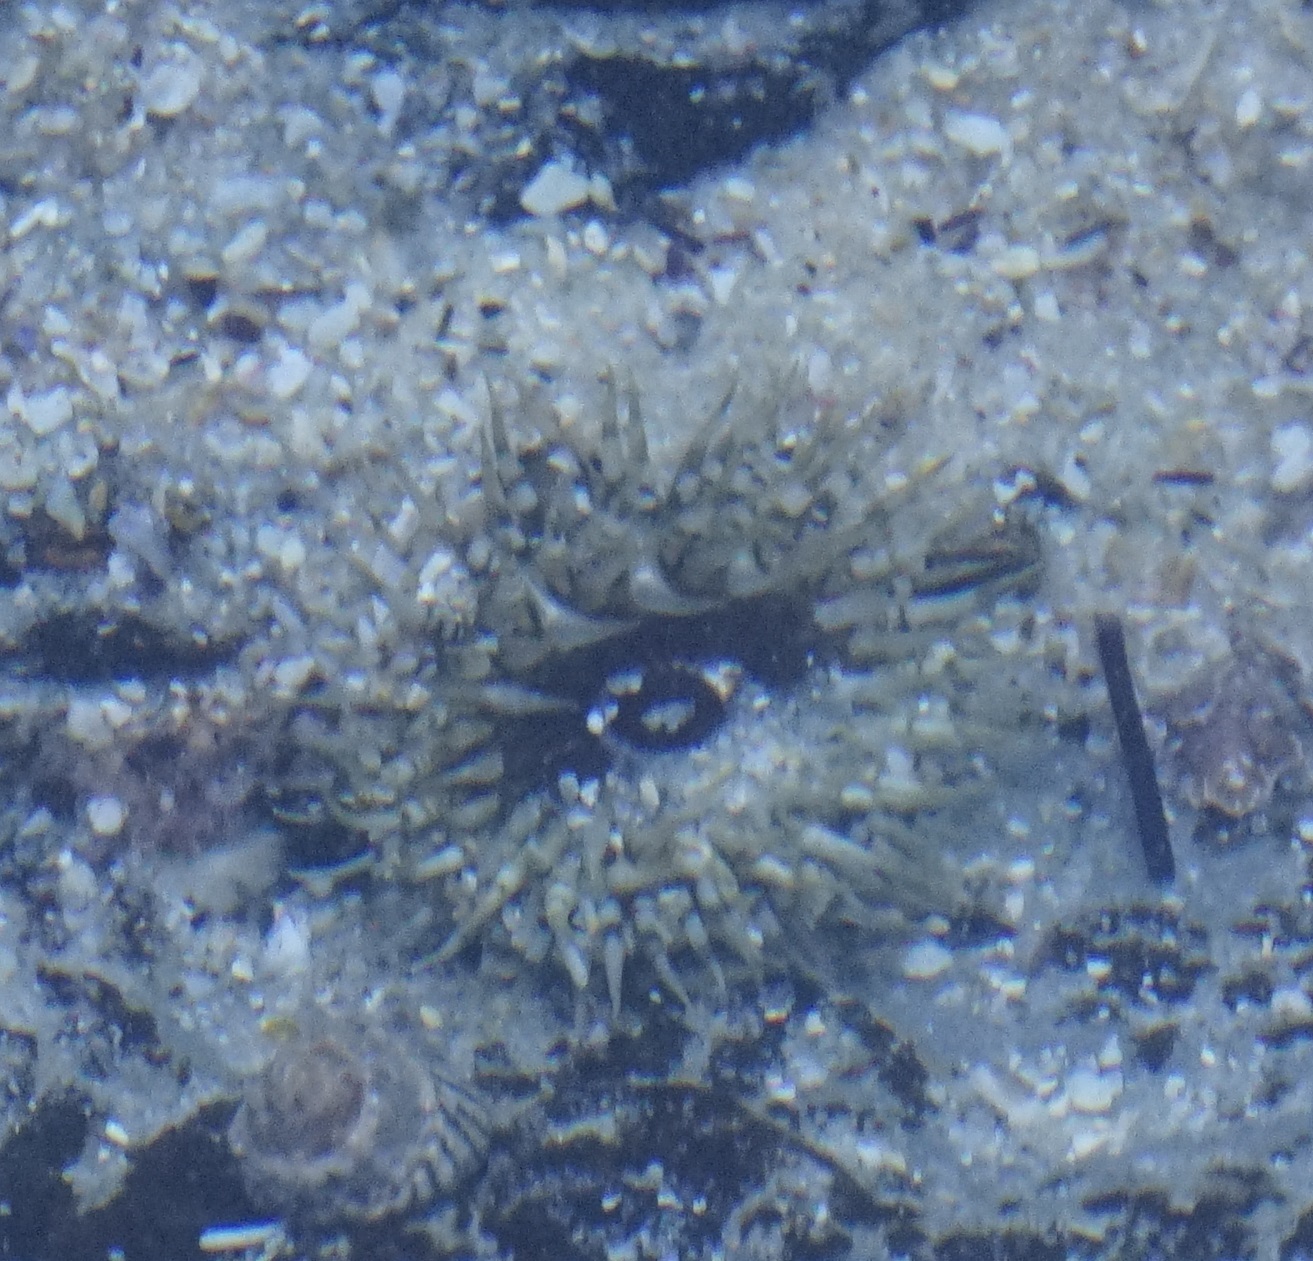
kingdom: Animalia
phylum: Cnidaria
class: Anthozoa
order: Actiniaria
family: Actiniidae
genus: Oulactis
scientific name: Oulactis muscosa
